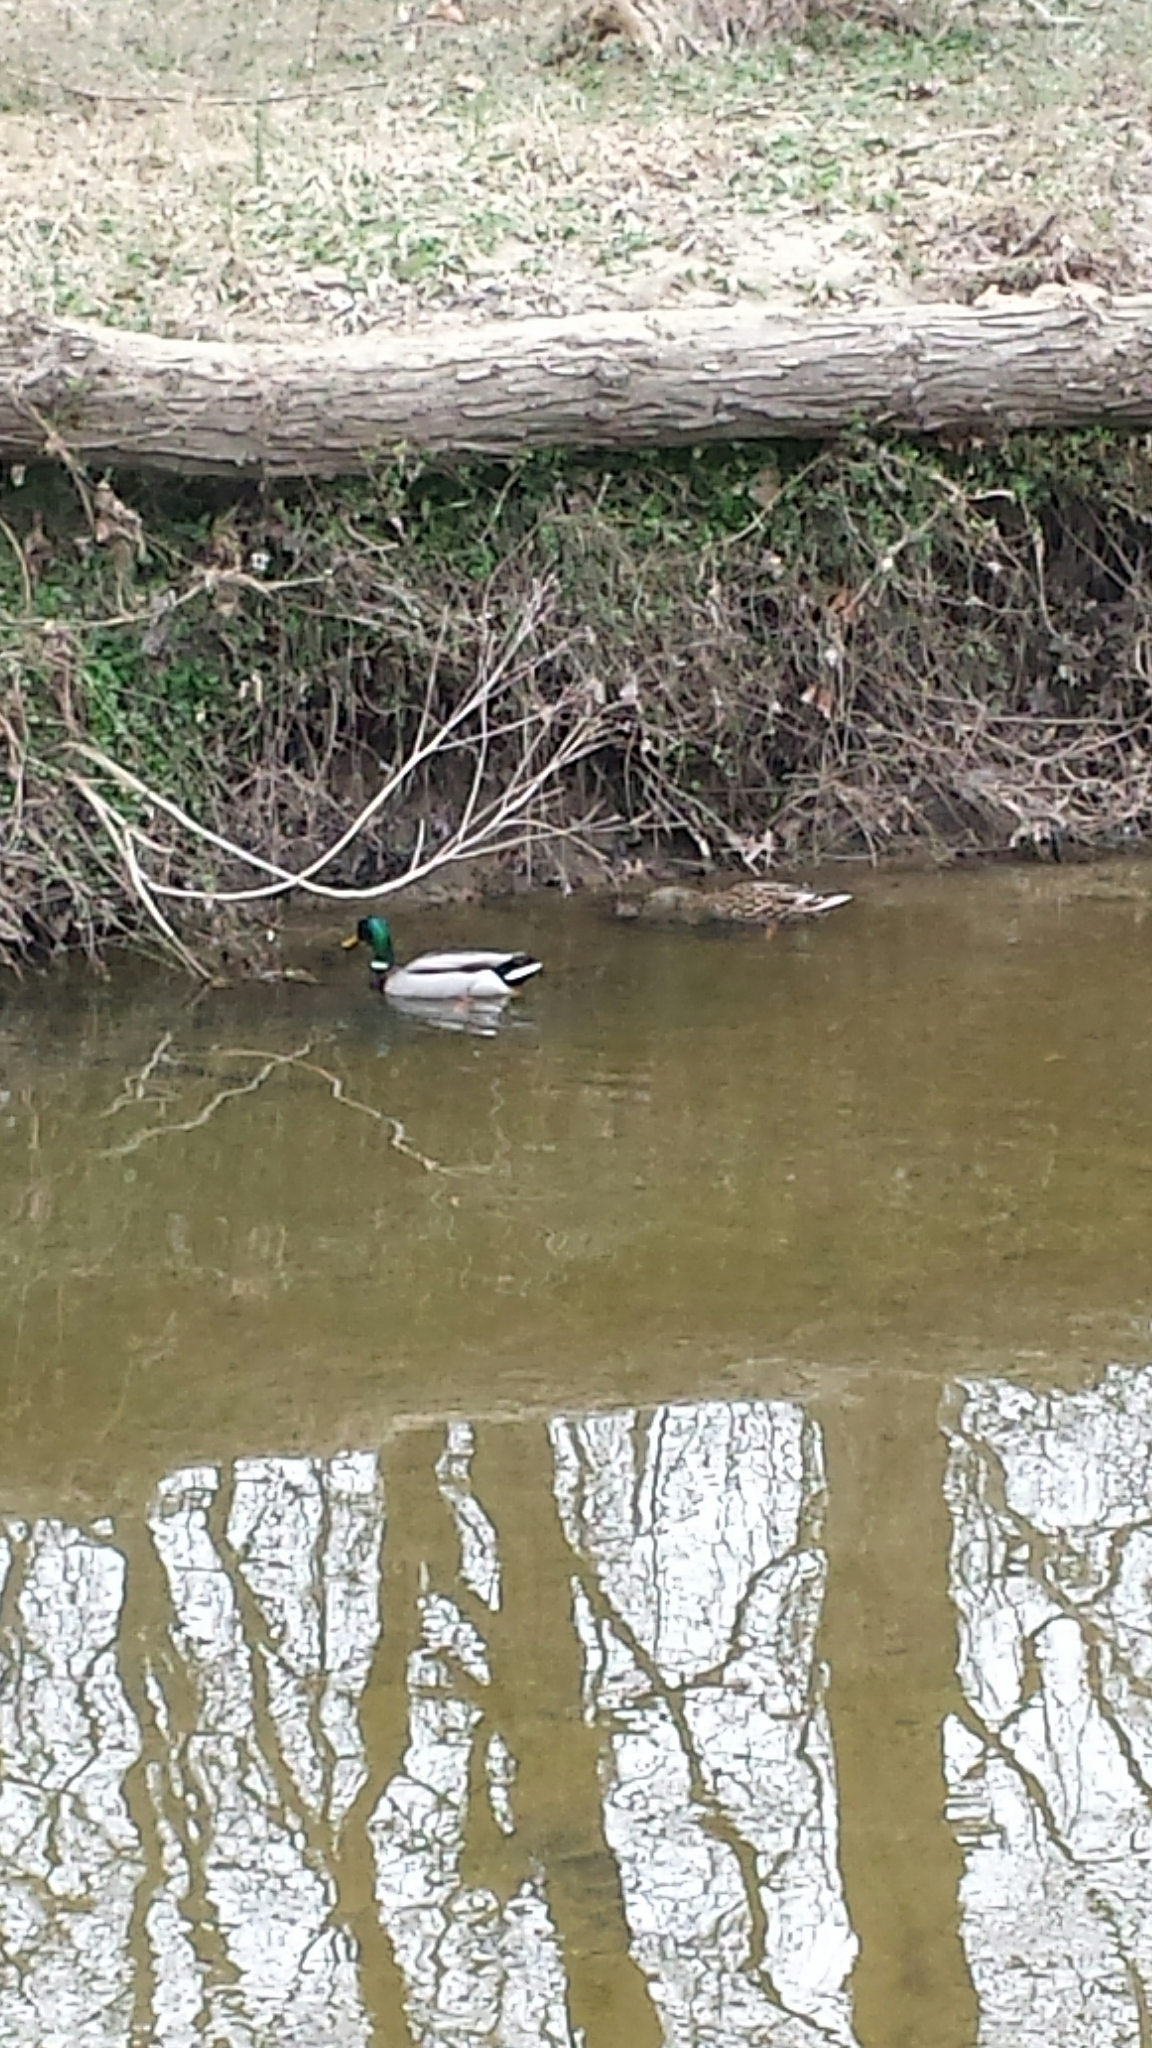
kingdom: Animalia
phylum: Chordata
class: Aves
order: Anseriformes
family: Anatidae
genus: Anas
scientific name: Anas platyrhynchos
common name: Mallard
